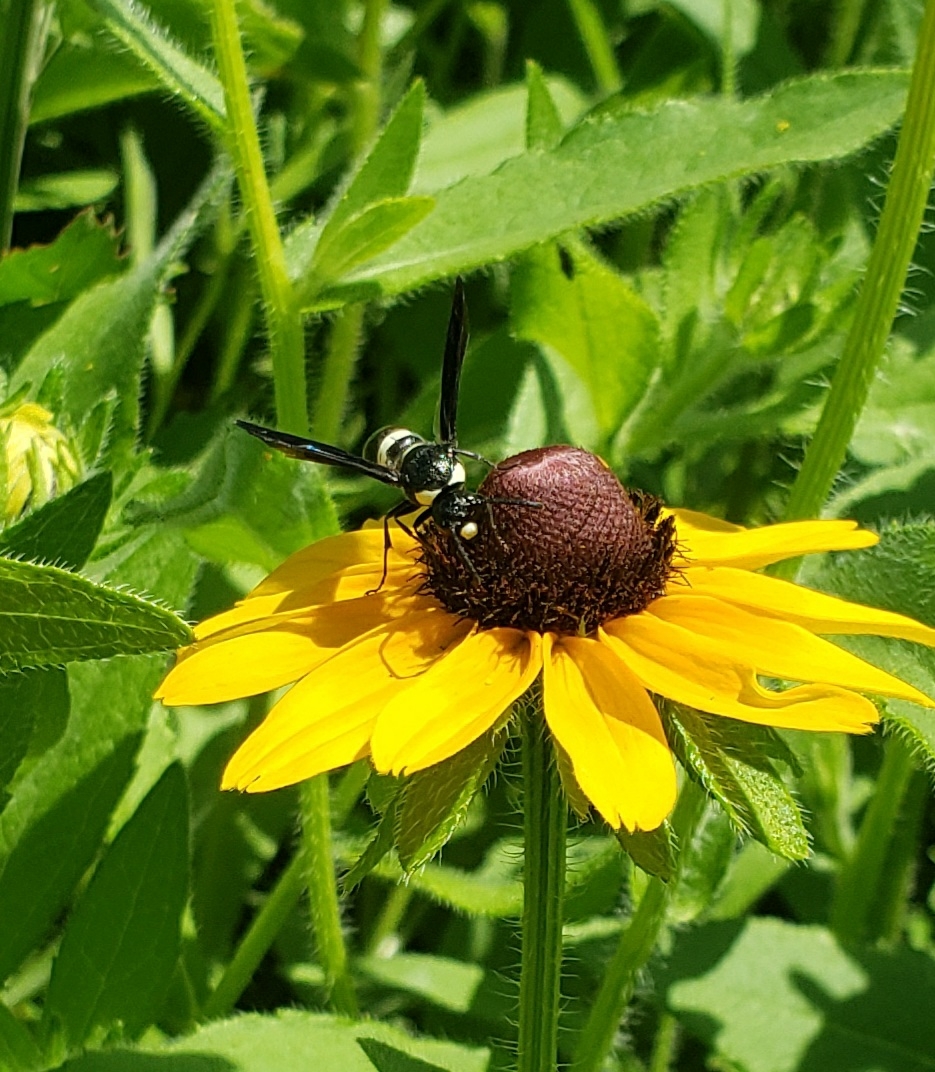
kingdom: Animalia
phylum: Arthropoda
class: Insecta
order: Hymenoptera
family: Eumenidae
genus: Monobia
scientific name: Monobia quadridens
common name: Four-toothed mason wasp
